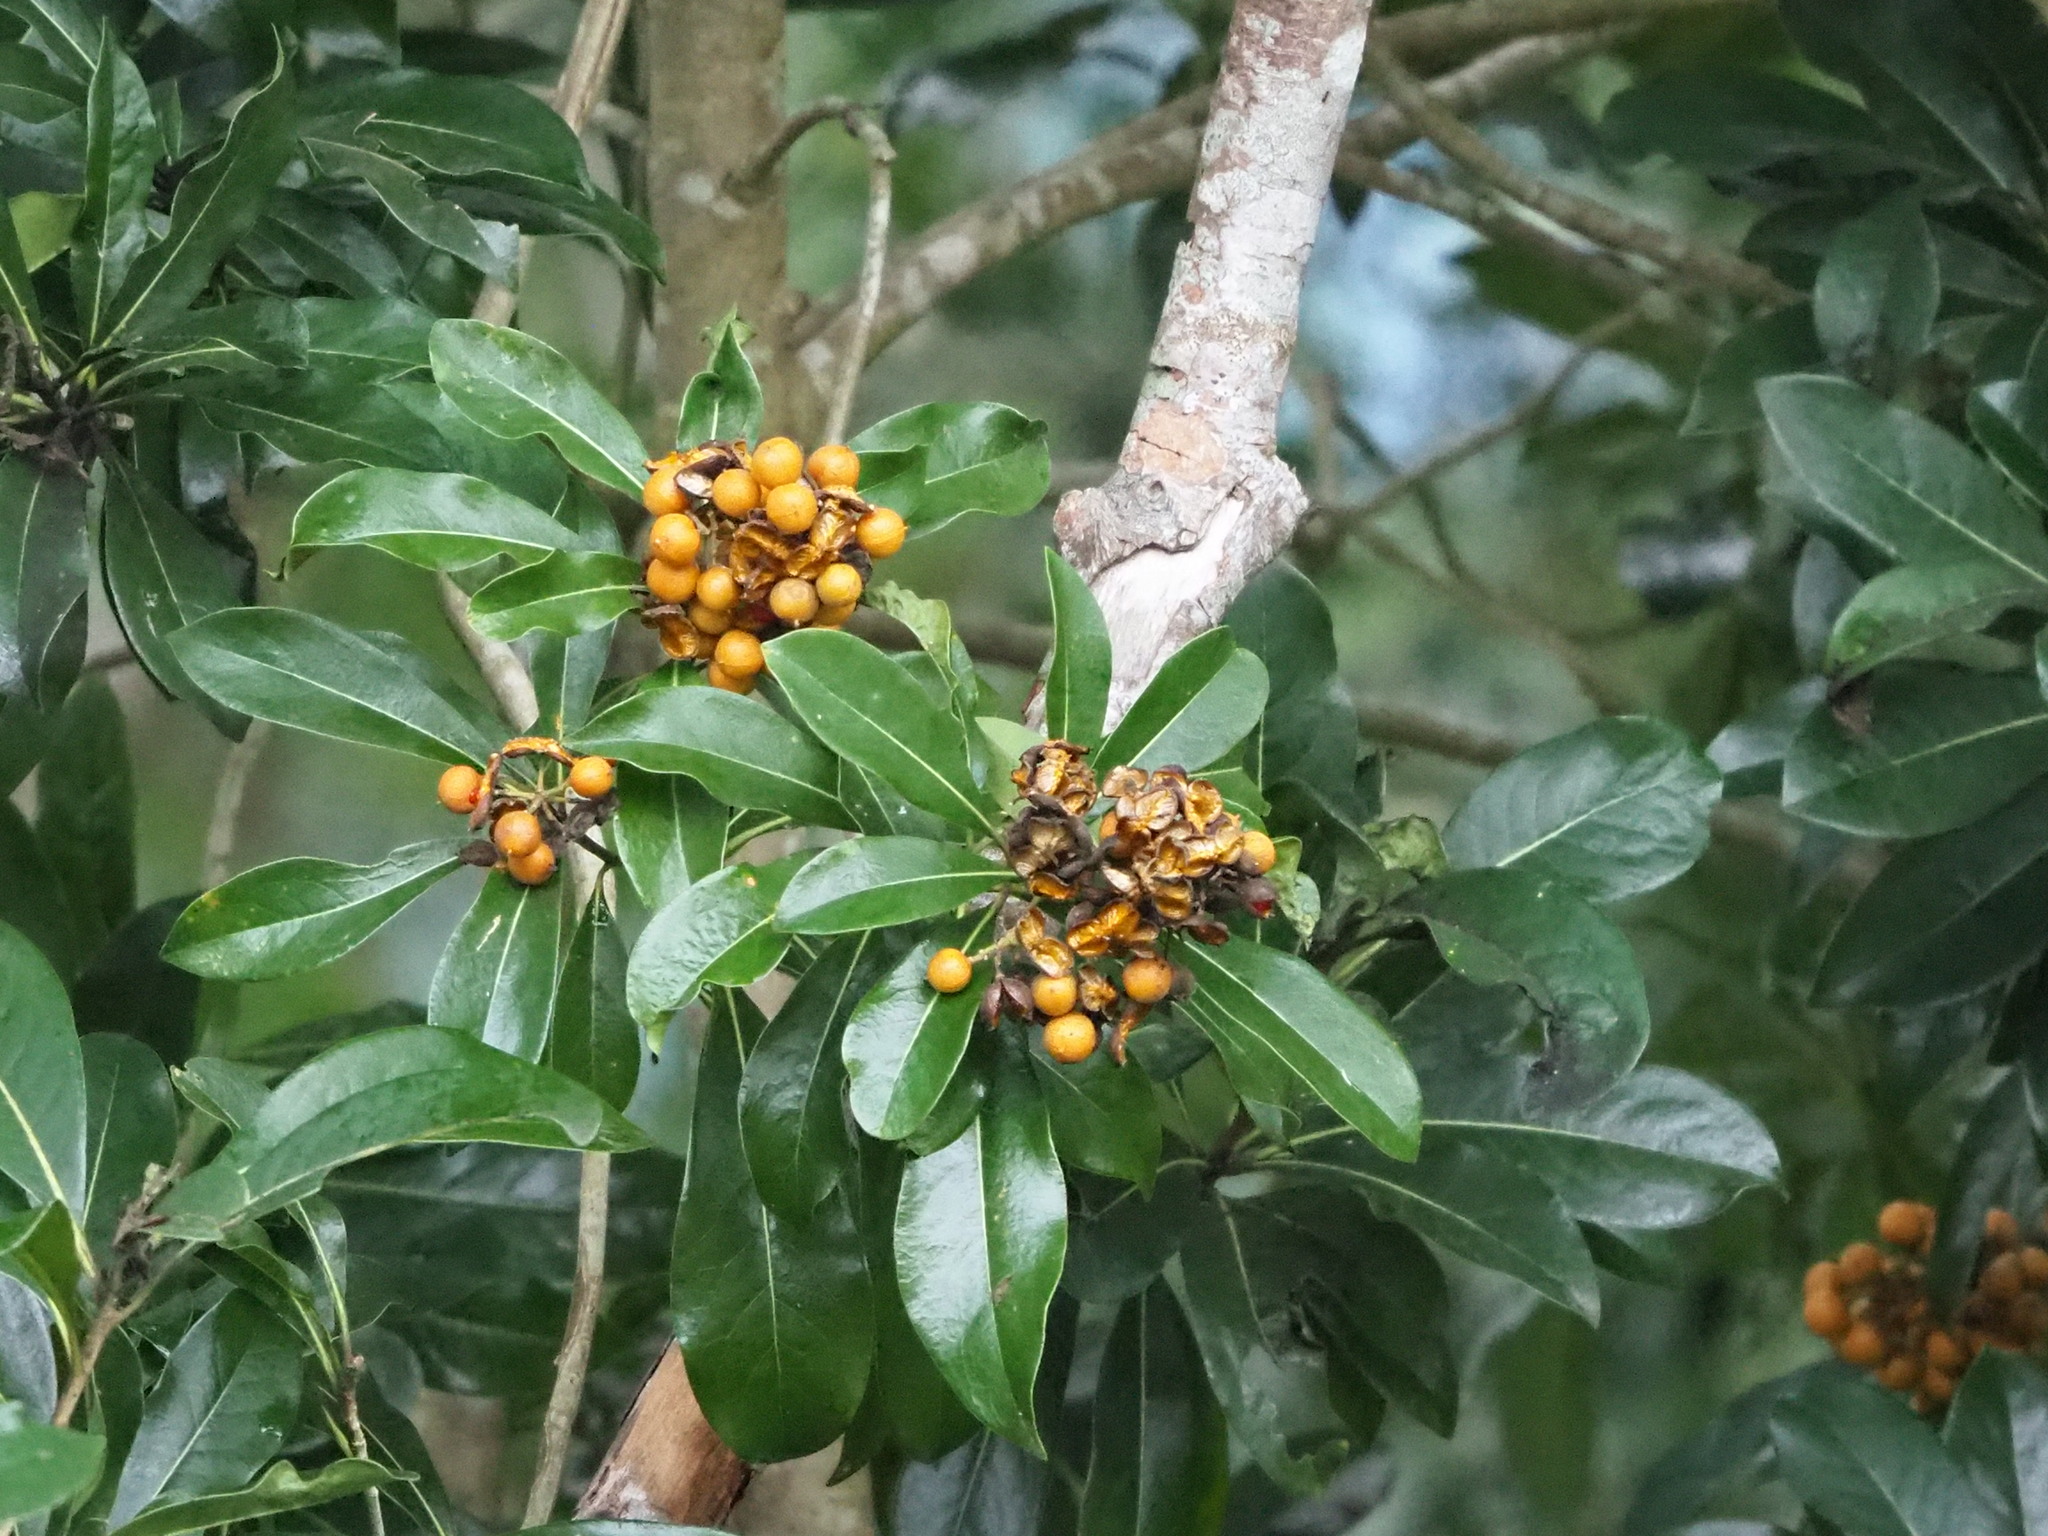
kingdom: Plantae
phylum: Tracheophyta
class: Magnoliopsida
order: Apiales
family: Pittosporaceae
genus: Pittosporum
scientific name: Pittosporum pentandrum
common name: Taiwanese cheesewood
